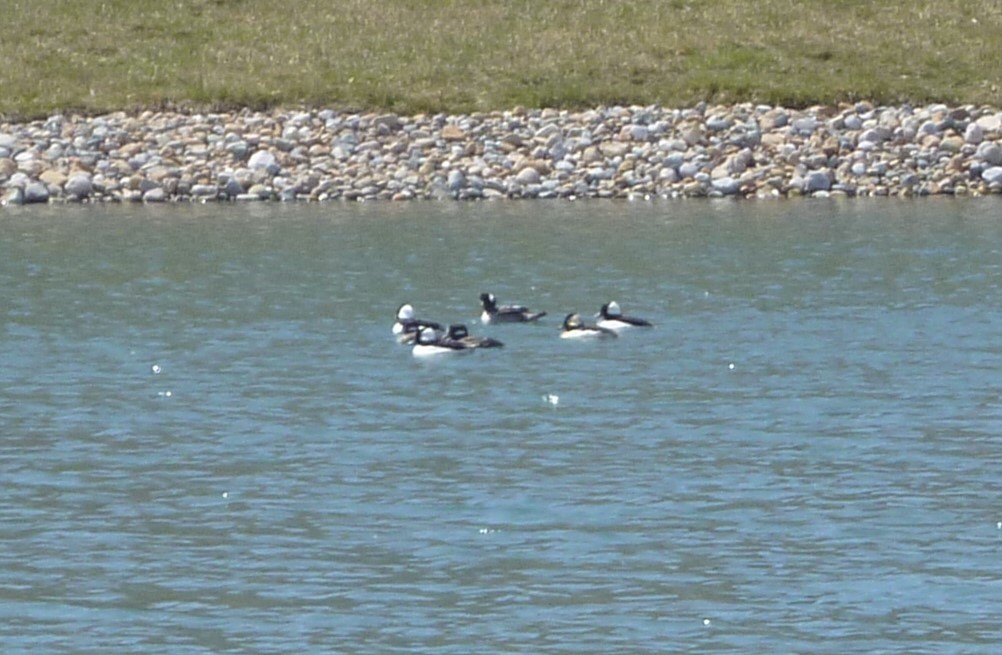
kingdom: Animalia
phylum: Chordata
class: Aves
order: Anseriformes
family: Anatidae
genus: Bucephala
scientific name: Bucephala albeola
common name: Bufflehead
